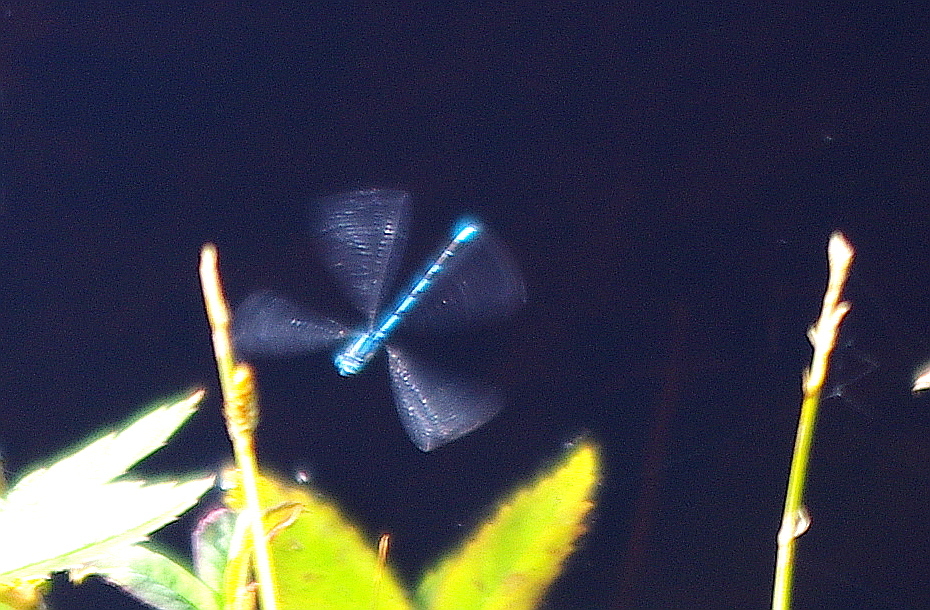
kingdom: Animalia
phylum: Arthropoda
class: Insecta
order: Odonata
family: Coenagrionidae
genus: Enallagma
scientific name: Enallagma cyathigerum
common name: Common blue damselfly
